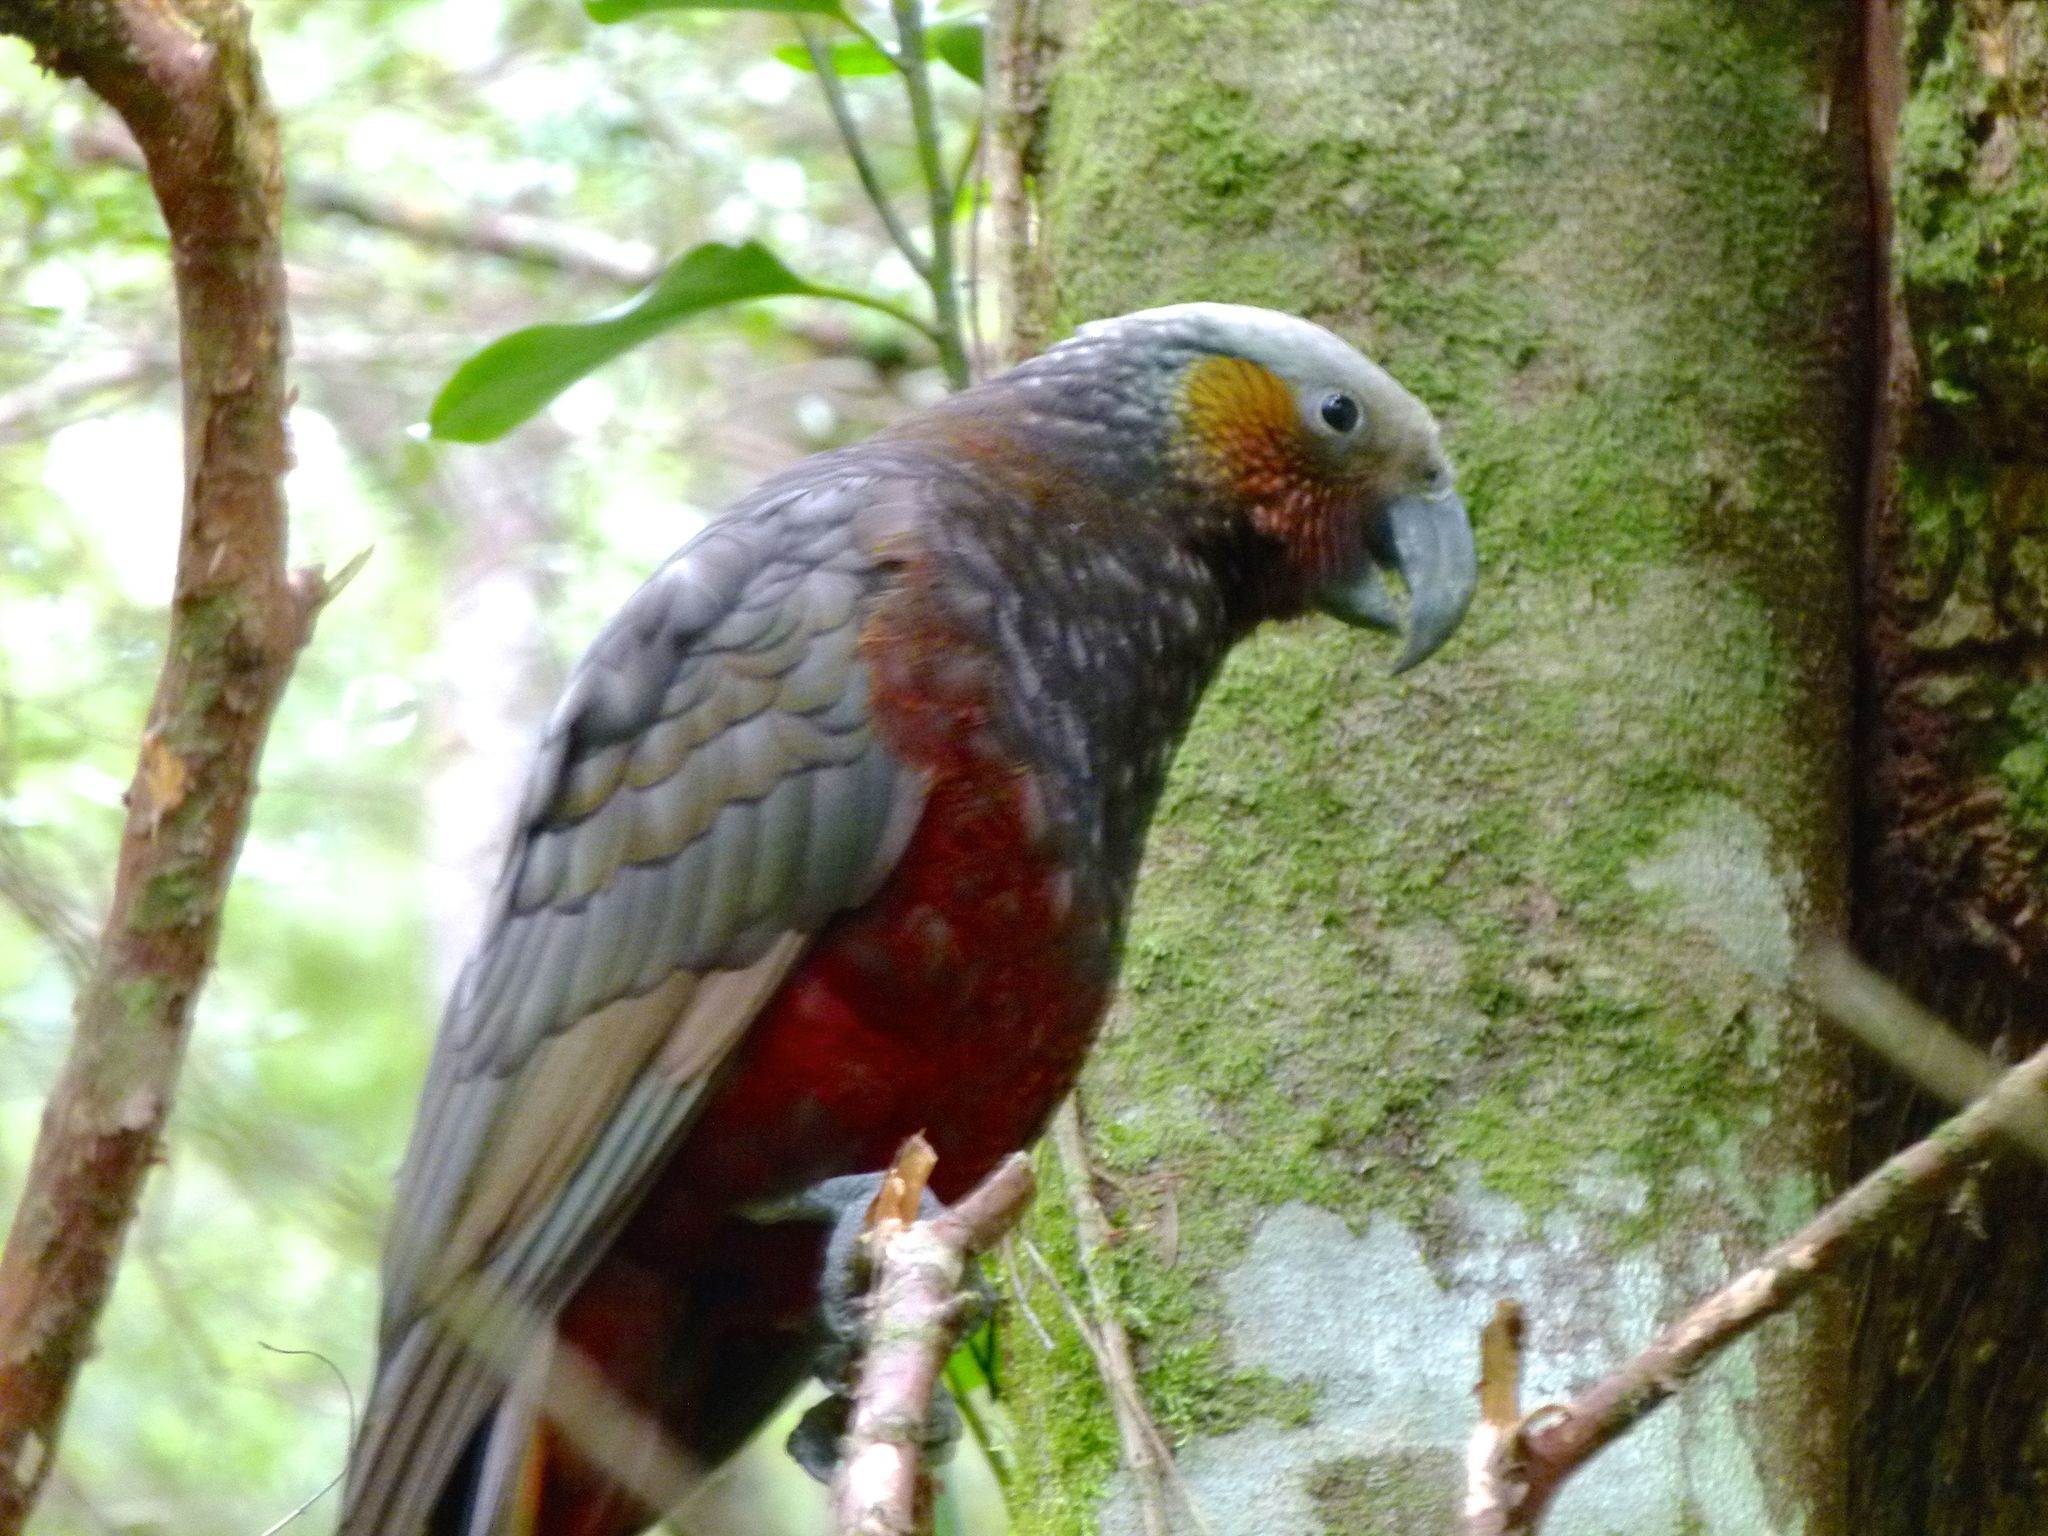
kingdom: Animalia
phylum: Chordata
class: Aves
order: Psittaciformes
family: Psittacidae
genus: Nestor
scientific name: Nestor meridionalis
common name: New zealand kaka
